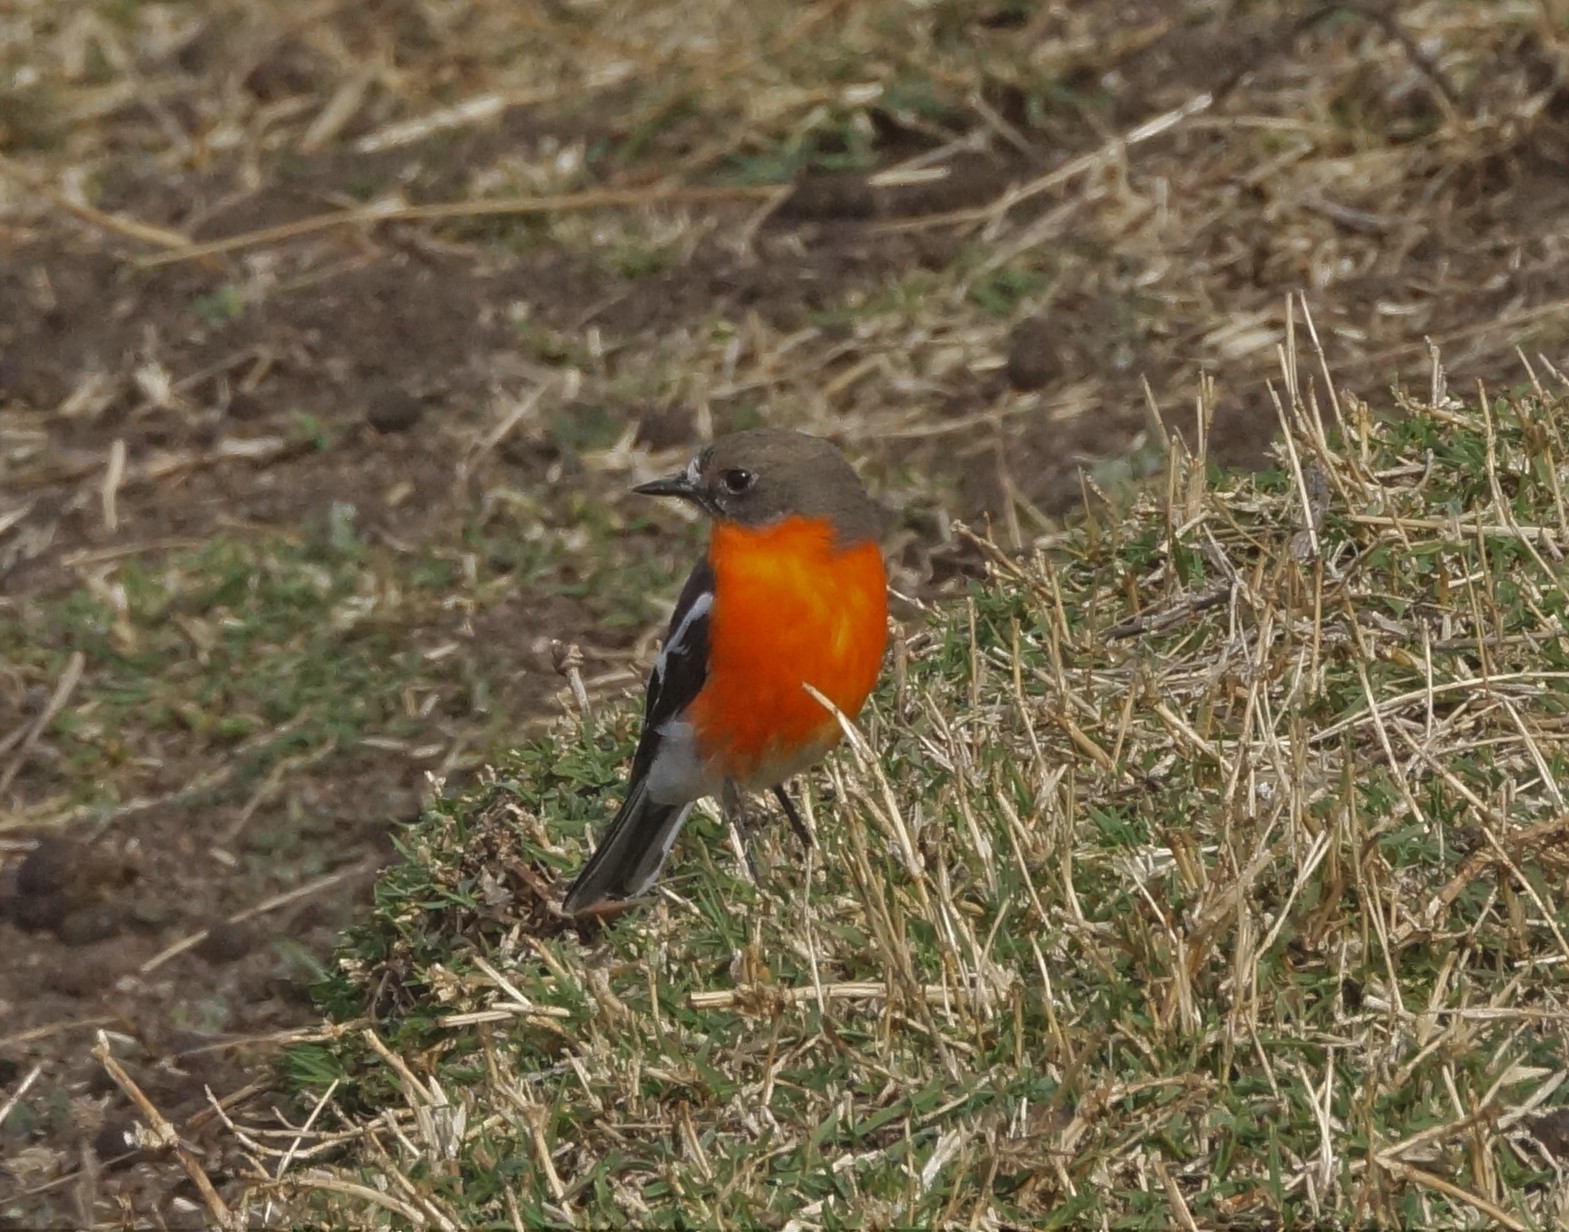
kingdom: Animalia
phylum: Chordata
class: Aves
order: Passeriformes
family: Petroicidae
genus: Petroica
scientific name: Petroica phoenicea
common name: Flame robin
